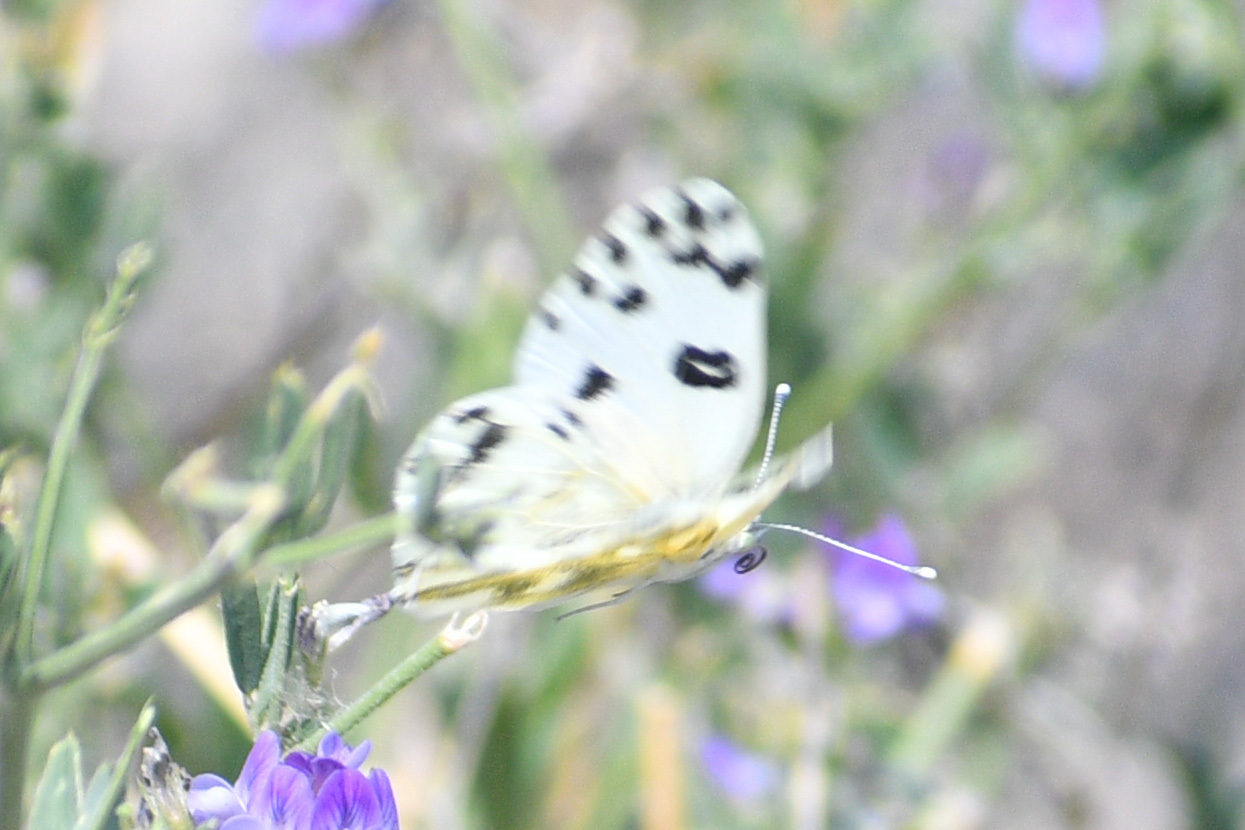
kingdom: Animalia
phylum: Arthropoda
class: Insecta
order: Lepidoptera
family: Pieridae
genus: Pontia
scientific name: Pontia beckerii
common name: Becker's white
